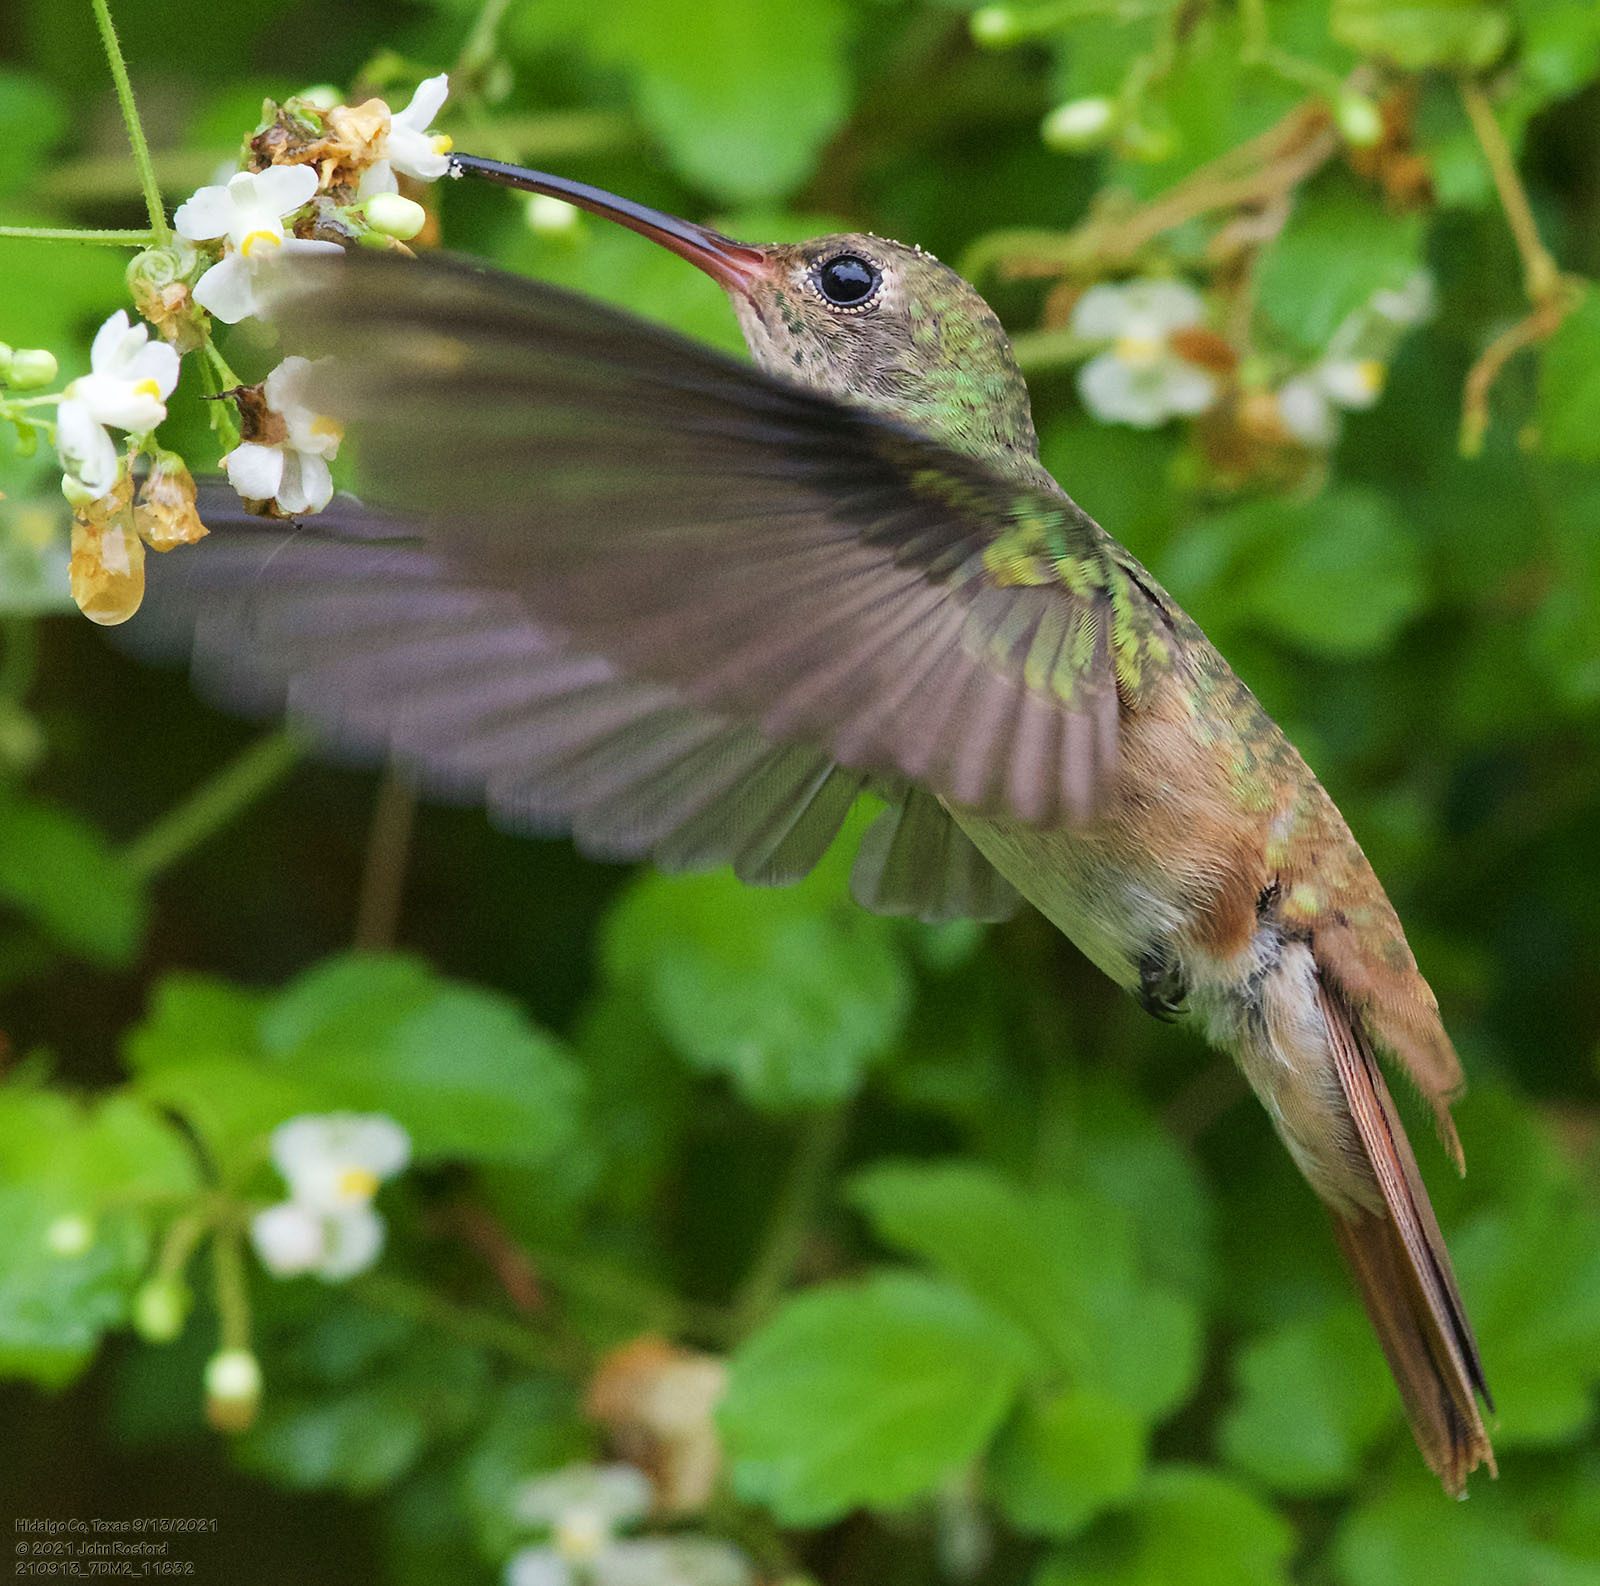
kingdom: Animalia
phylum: Chordata
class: Aves
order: Apodiformes
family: Trochilidae
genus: Amazilia
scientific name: Amazilia yucatanensis
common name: Buff-bellied hummingbird
